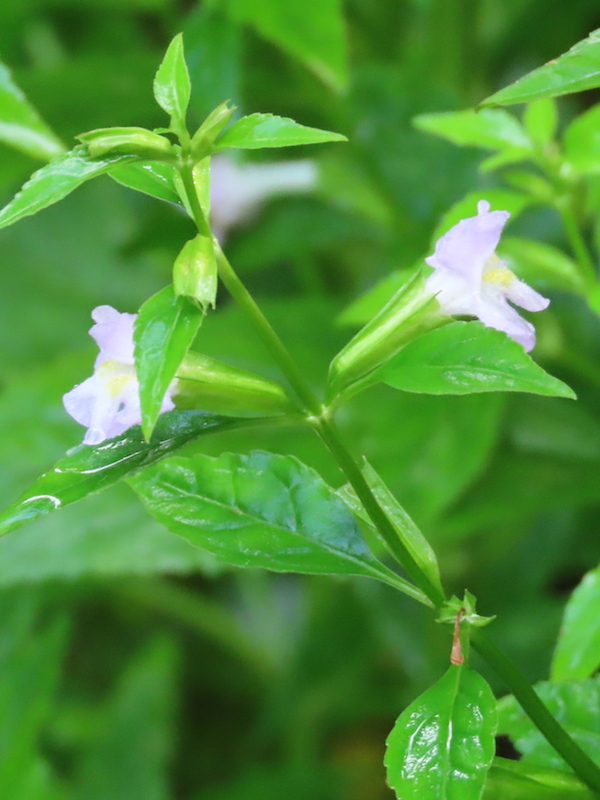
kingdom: Plantae
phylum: Tracheophyta
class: Magnoliopsida
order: Lamiales
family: Phrymaceae
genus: Mimulus
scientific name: Mimulus alatus
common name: Sharp-wing monkey-flower
